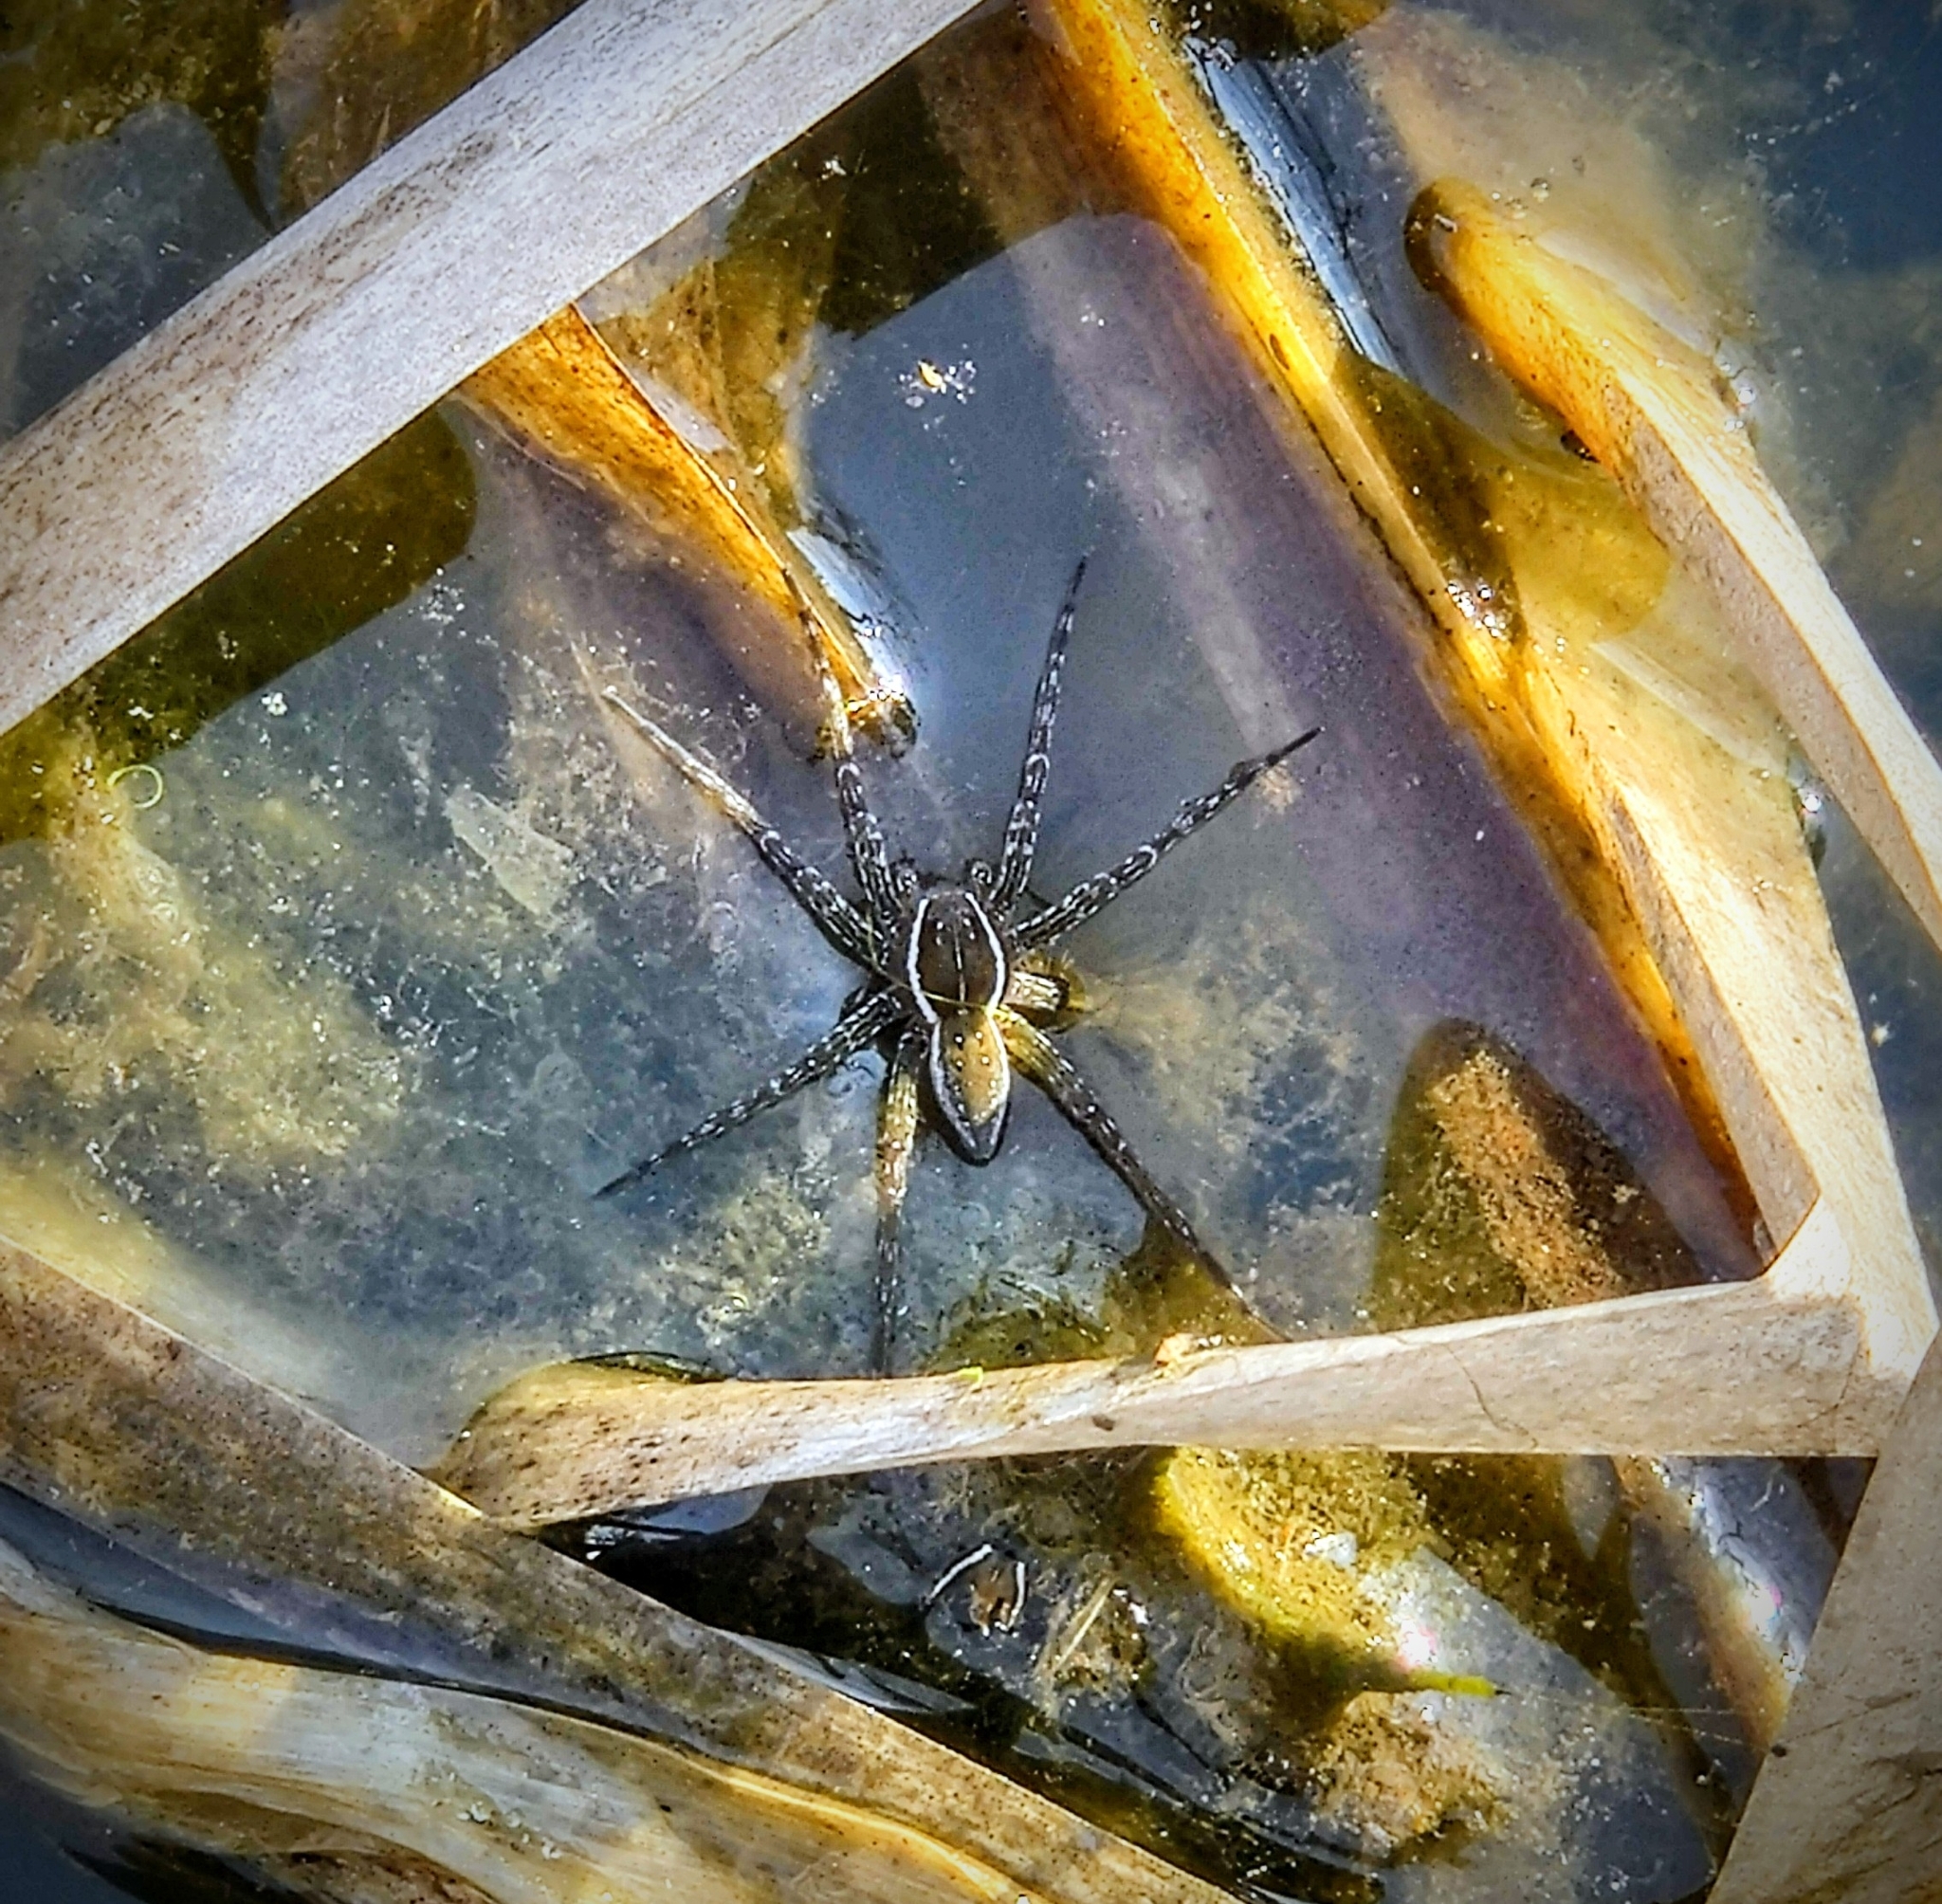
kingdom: Animalia
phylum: Arthropoda
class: Arachnida
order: Araneae
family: Pisauridae
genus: Dolomedes
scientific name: Dolomedes triton
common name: Six-spotted fishing spider
